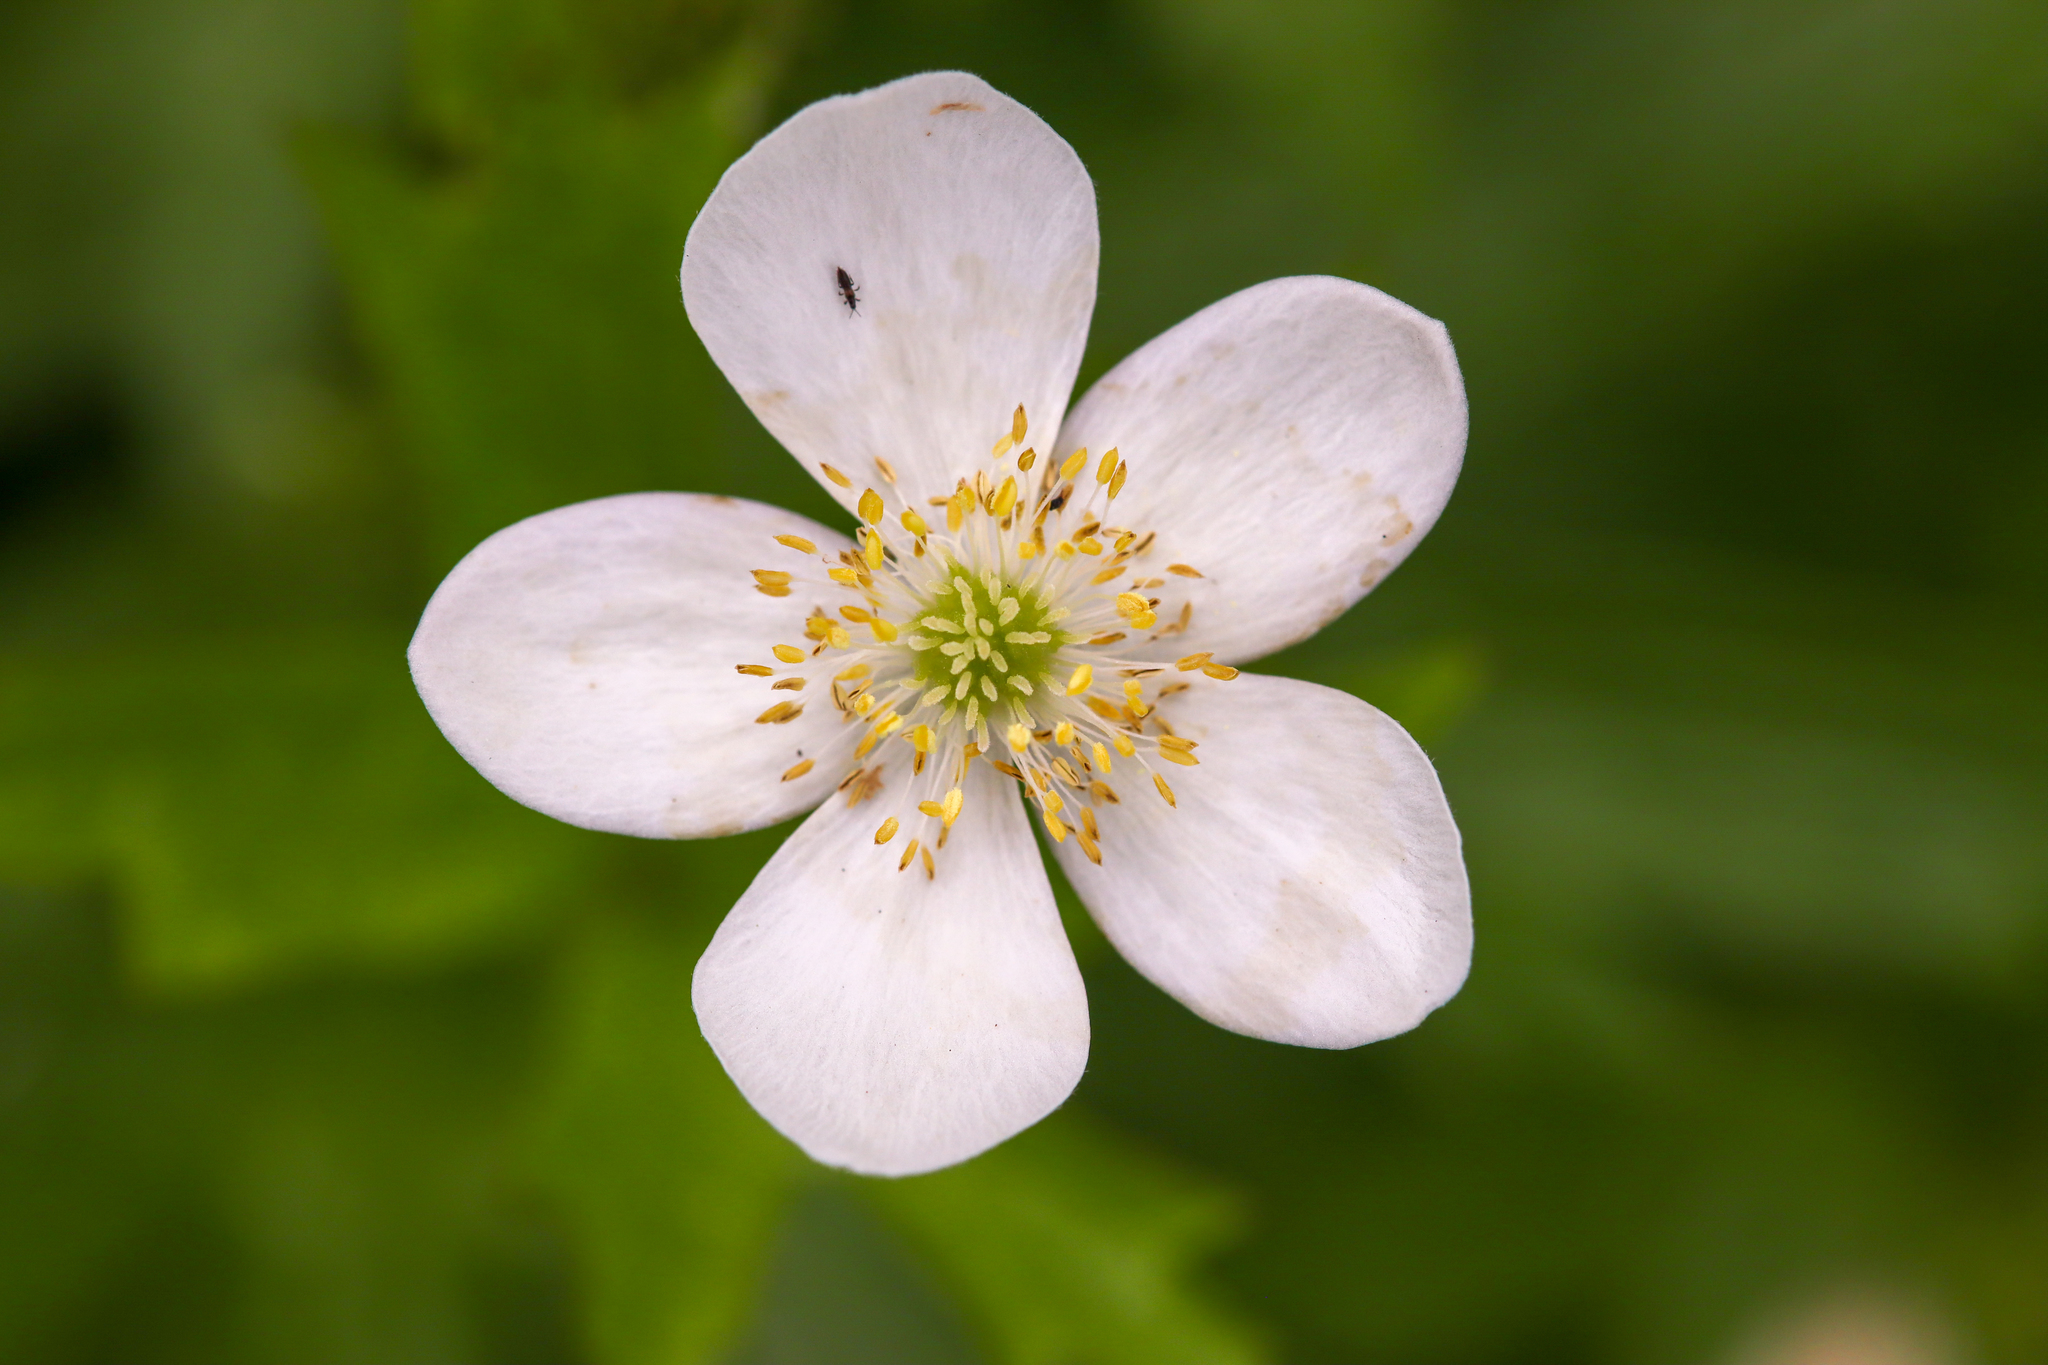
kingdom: Plantae
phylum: Tracheophyta
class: Magnoliopsida
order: Ranunculales
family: Ranunculaceae
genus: Anemonastrum
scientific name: Anemonastrum canadense
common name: Canada anemone
